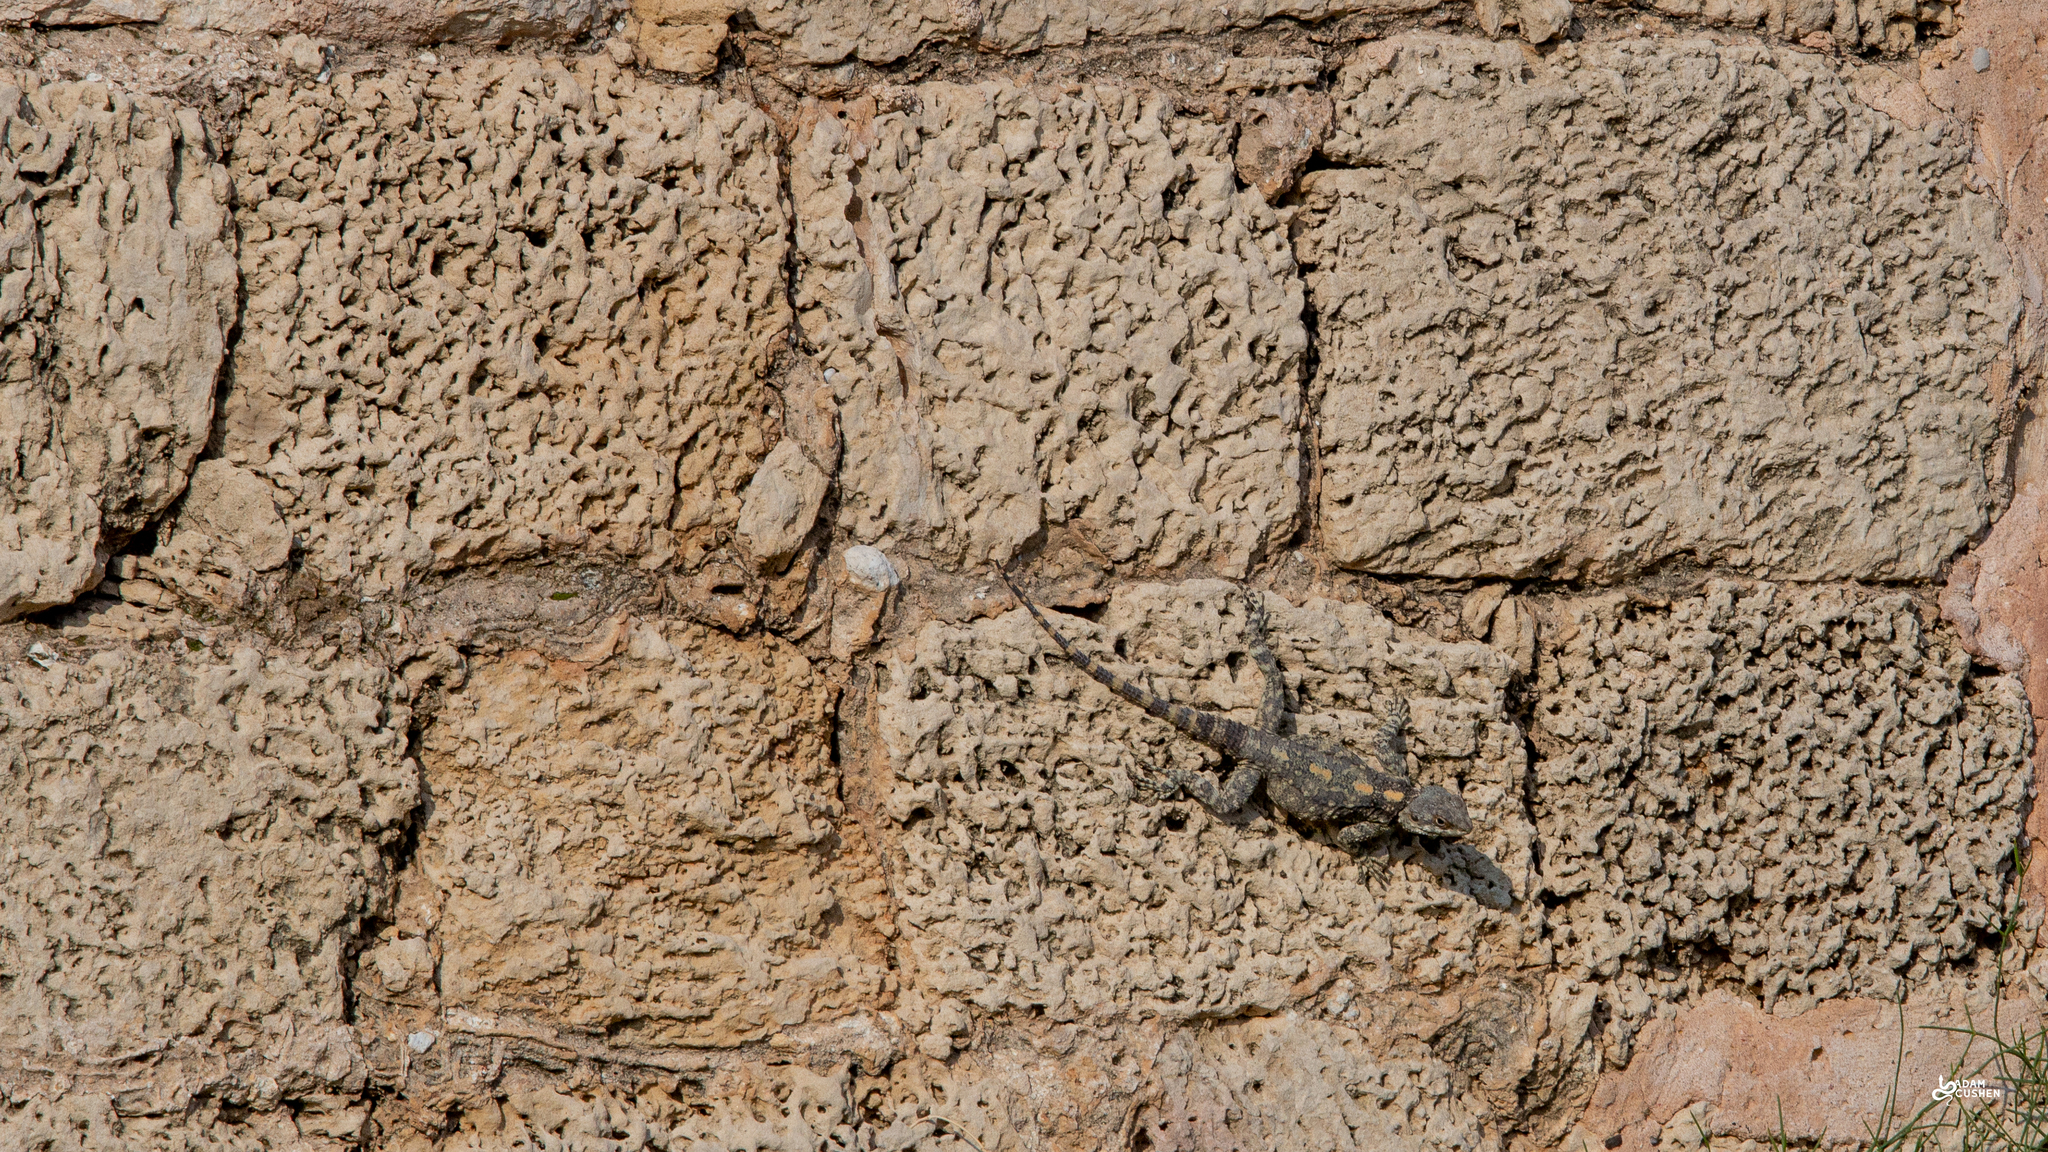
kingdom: Animalia
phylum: Chordata
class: Squamata
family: Agamidae
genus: Laudakia
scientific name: Laudakia vulgaris
